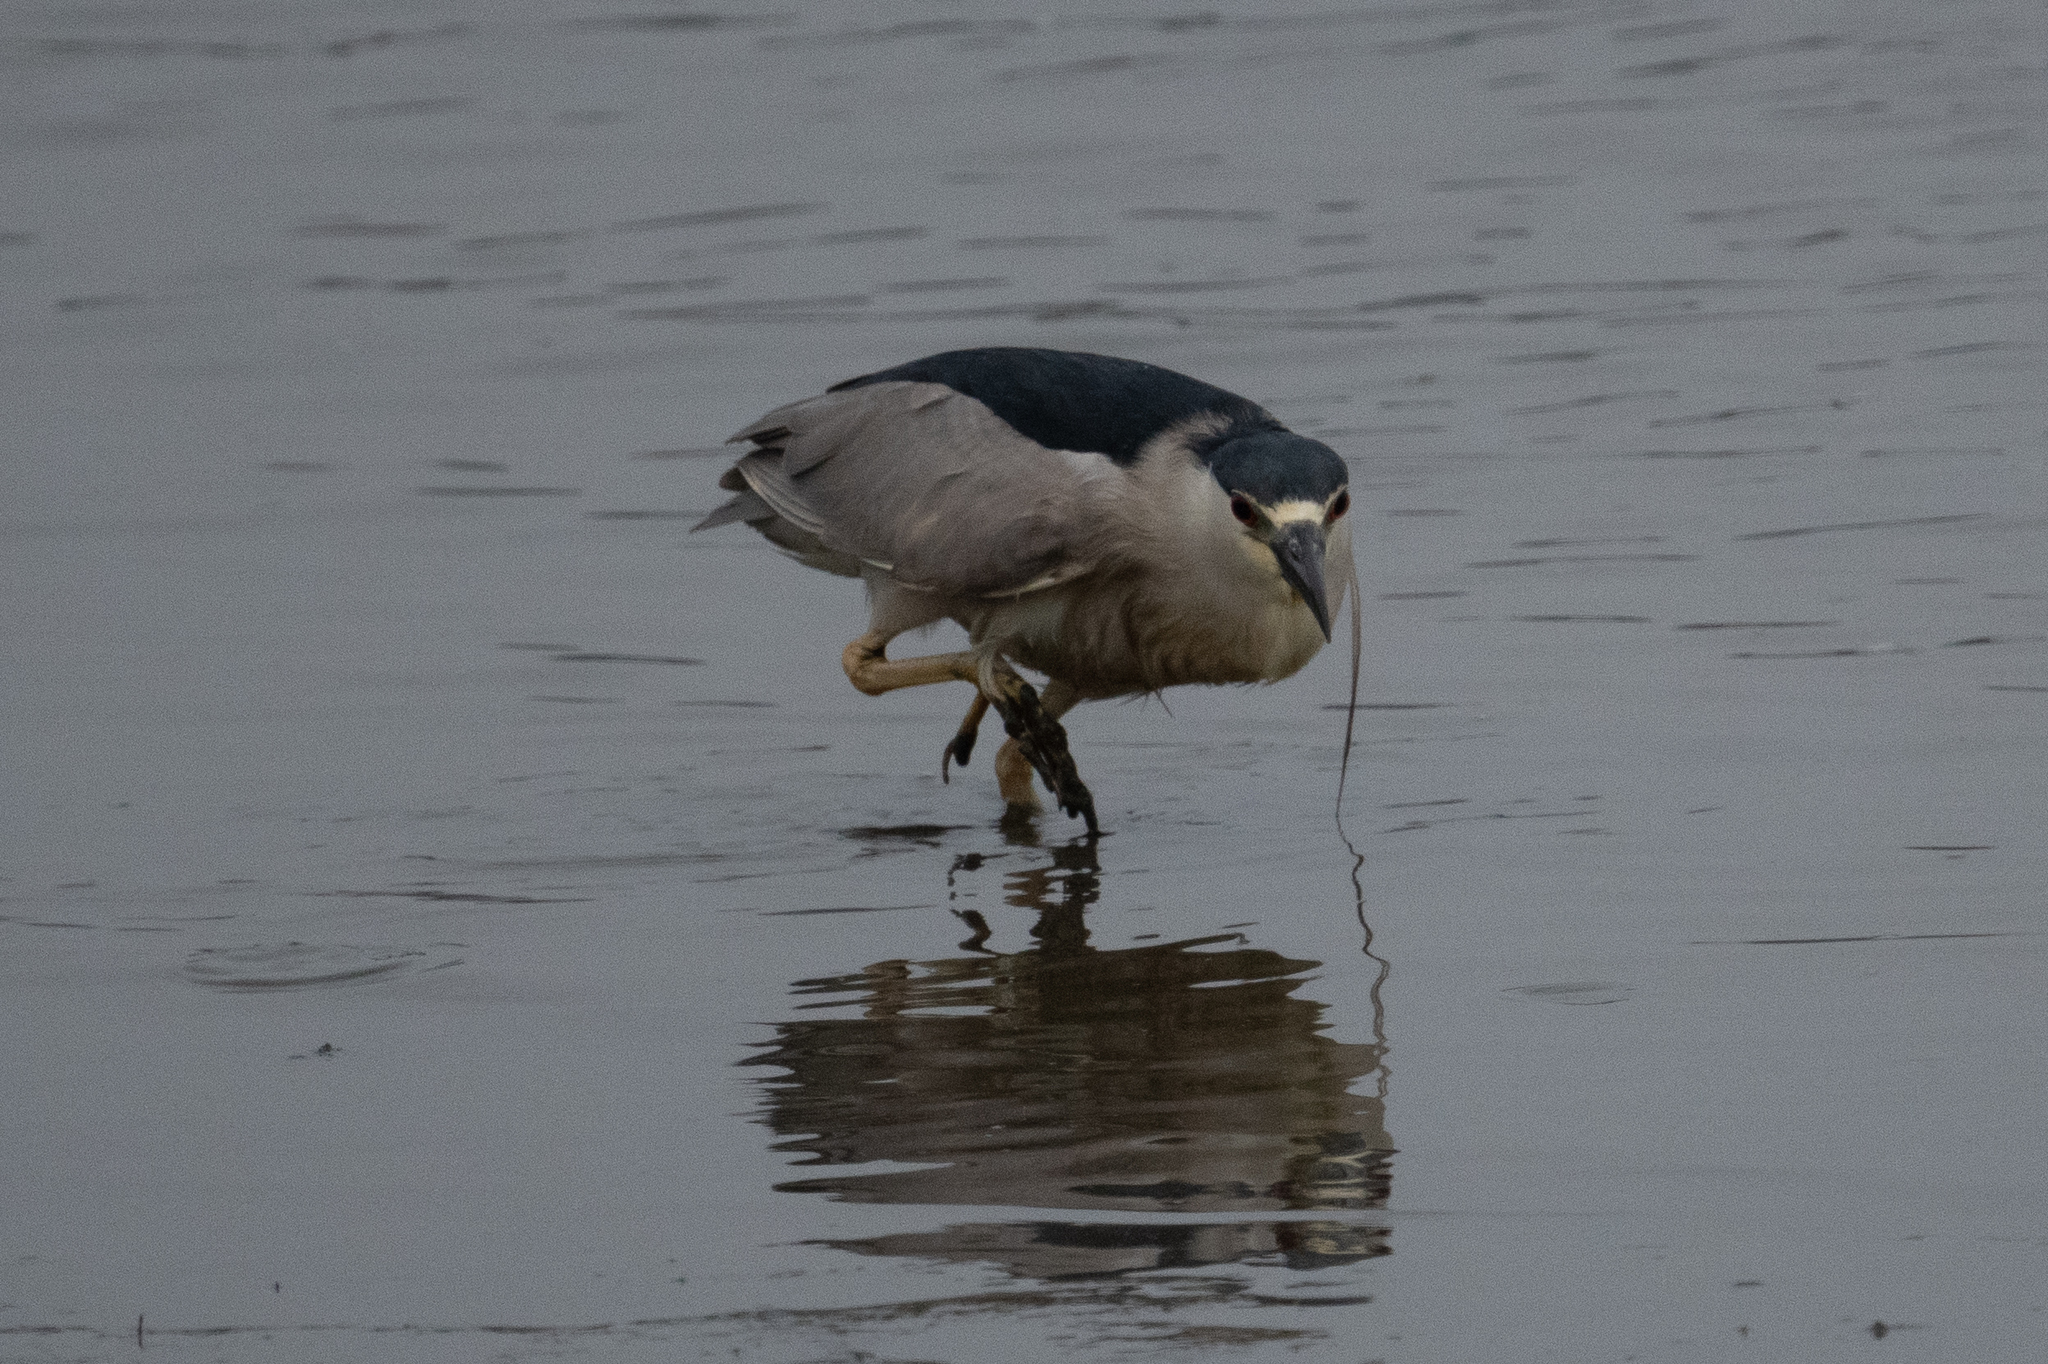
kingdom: Animalia
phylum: Chordata
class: Aves
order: Pelecaniformes
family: Ardeidae
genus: Nycticorax
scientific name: Nycticorax nycticorax
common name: Black-crowned night heron
